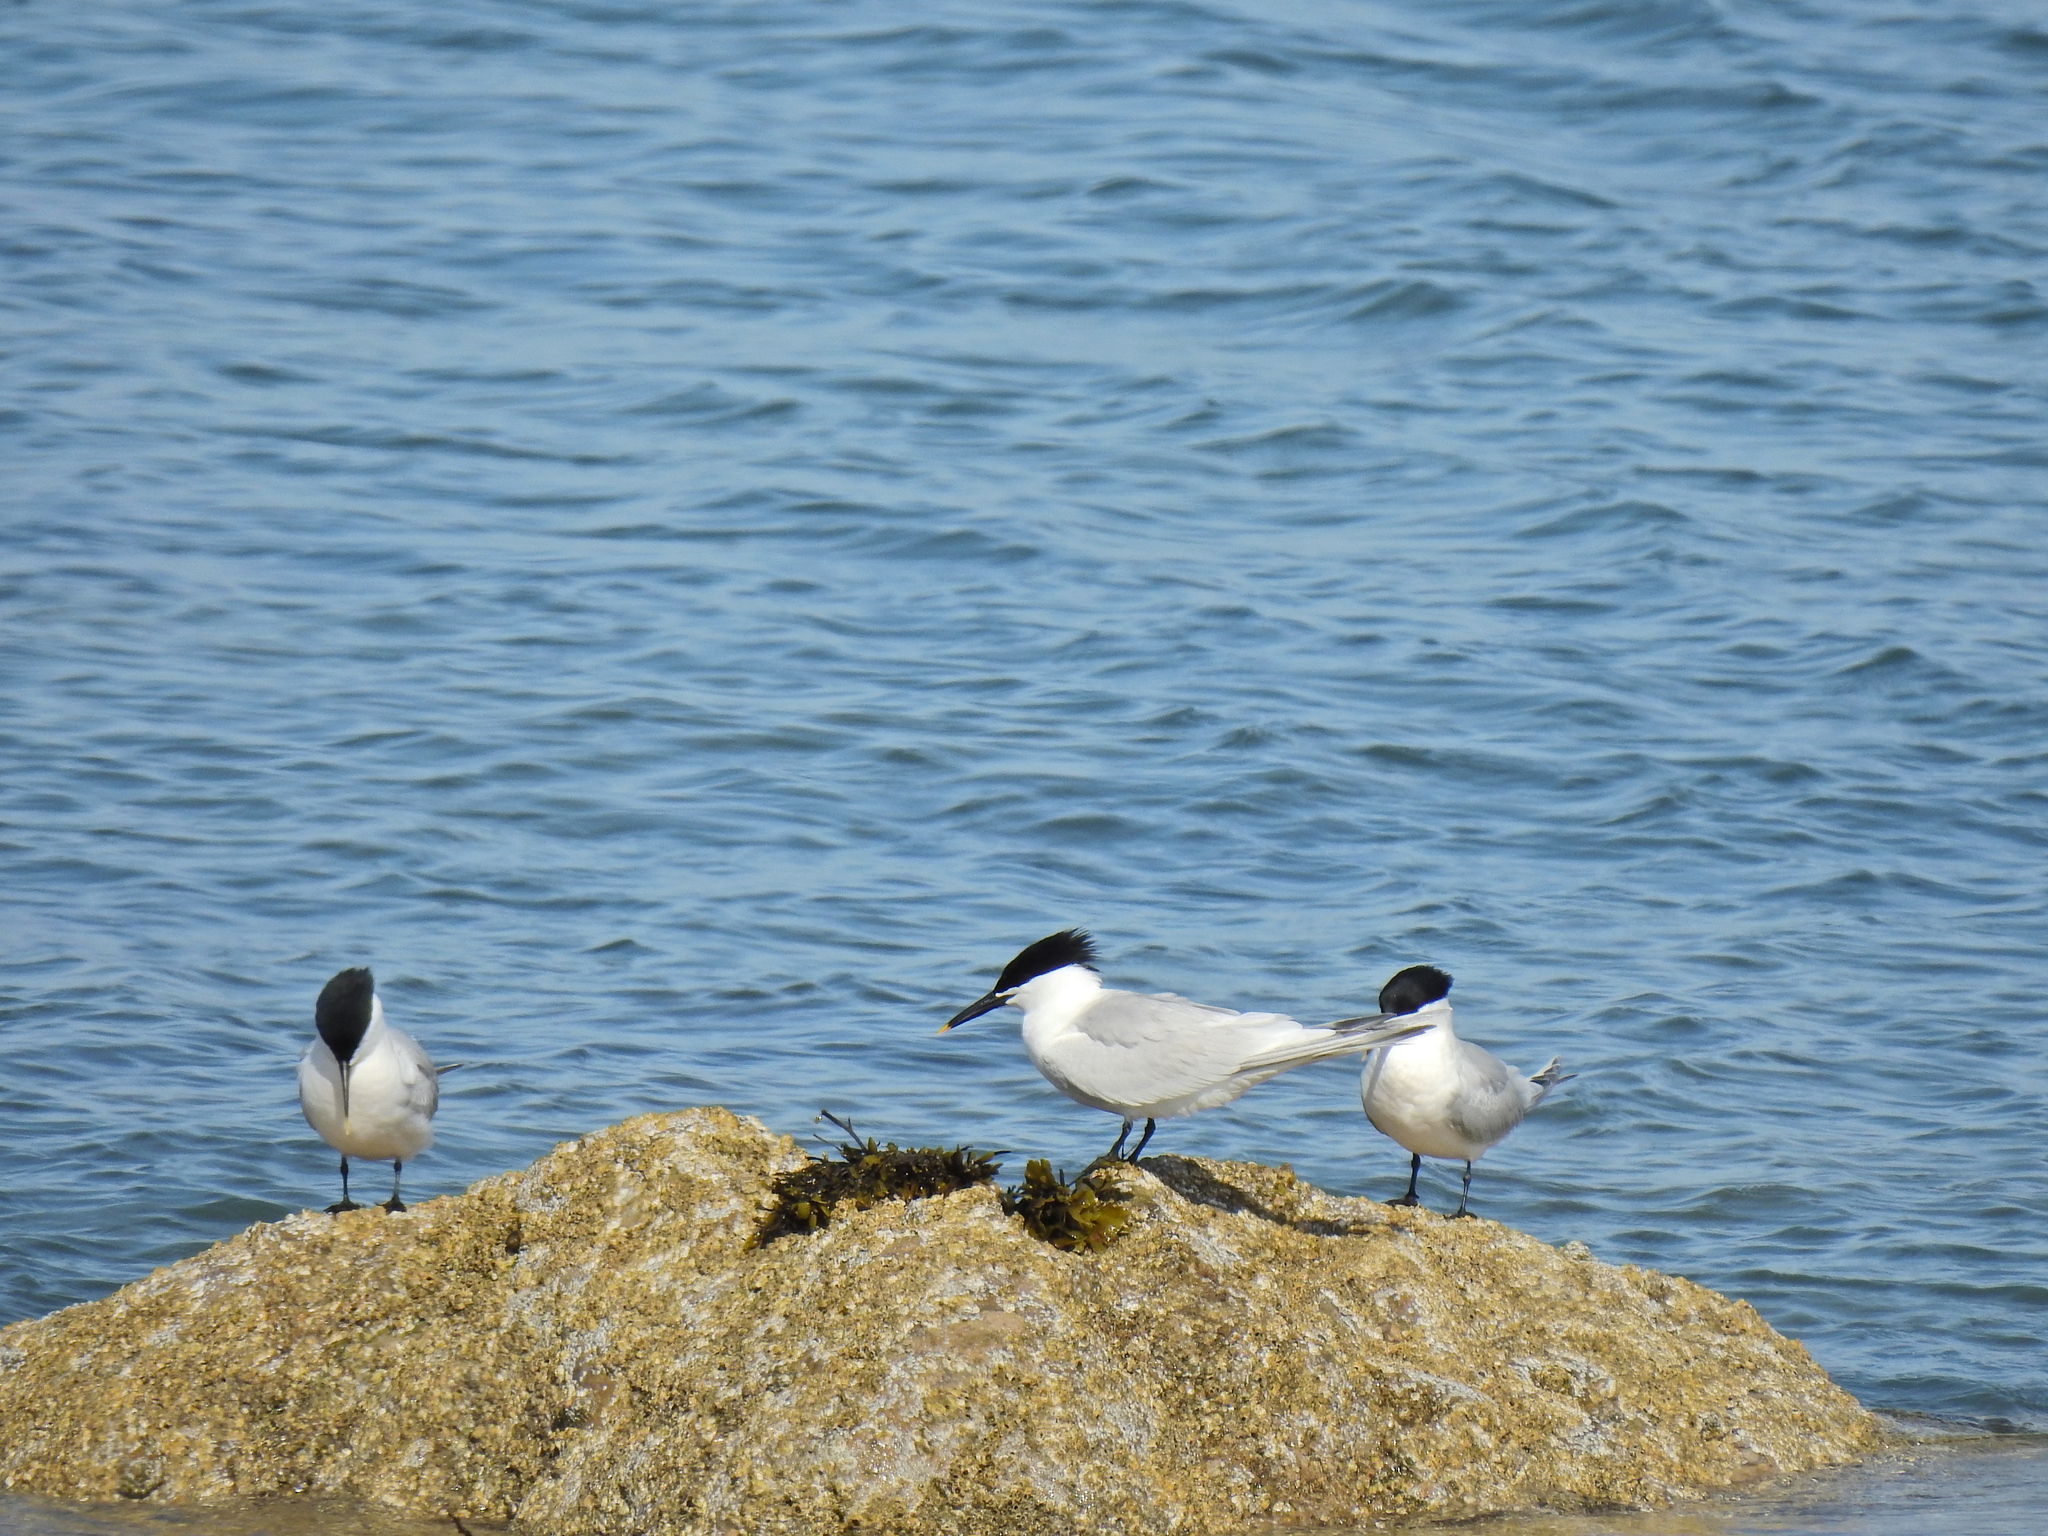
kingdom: Animalia
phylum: Chordata
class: Aves
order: Charadriiformes
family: Laridae
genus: Thalasseus
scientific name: Thalasseus sandvicensis
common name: Sandwich tern
